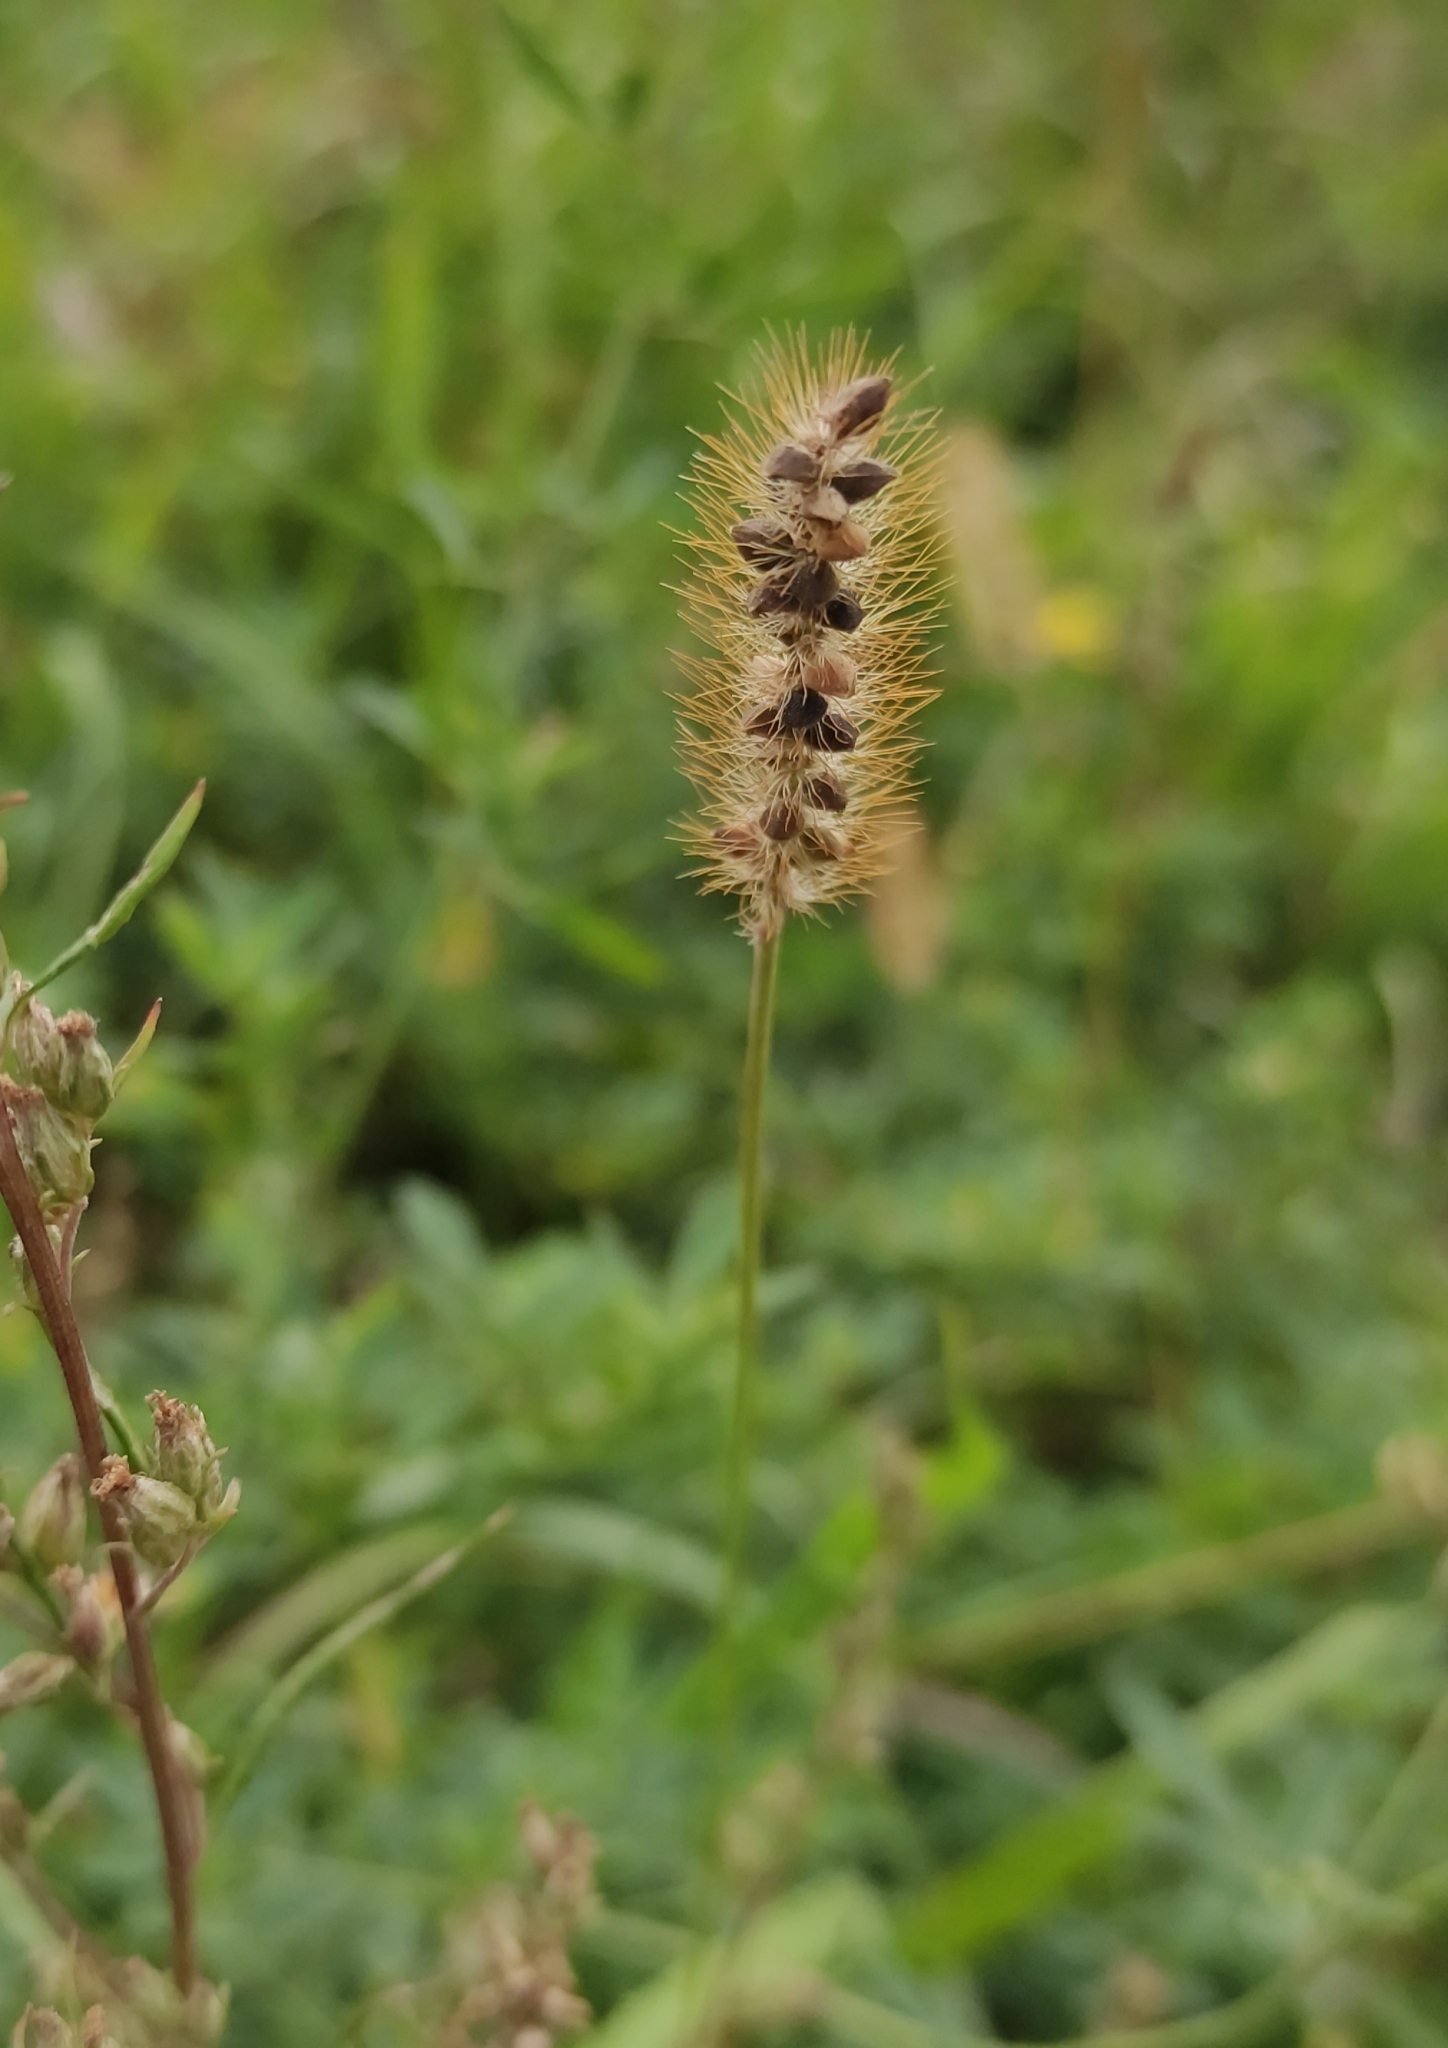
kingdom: Plantae
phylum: Tracheophyta
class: Liliopsida
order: Poales
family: Poaceae
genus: Setaria
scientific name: Setaria pumila
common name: Yellow bristle-grass
